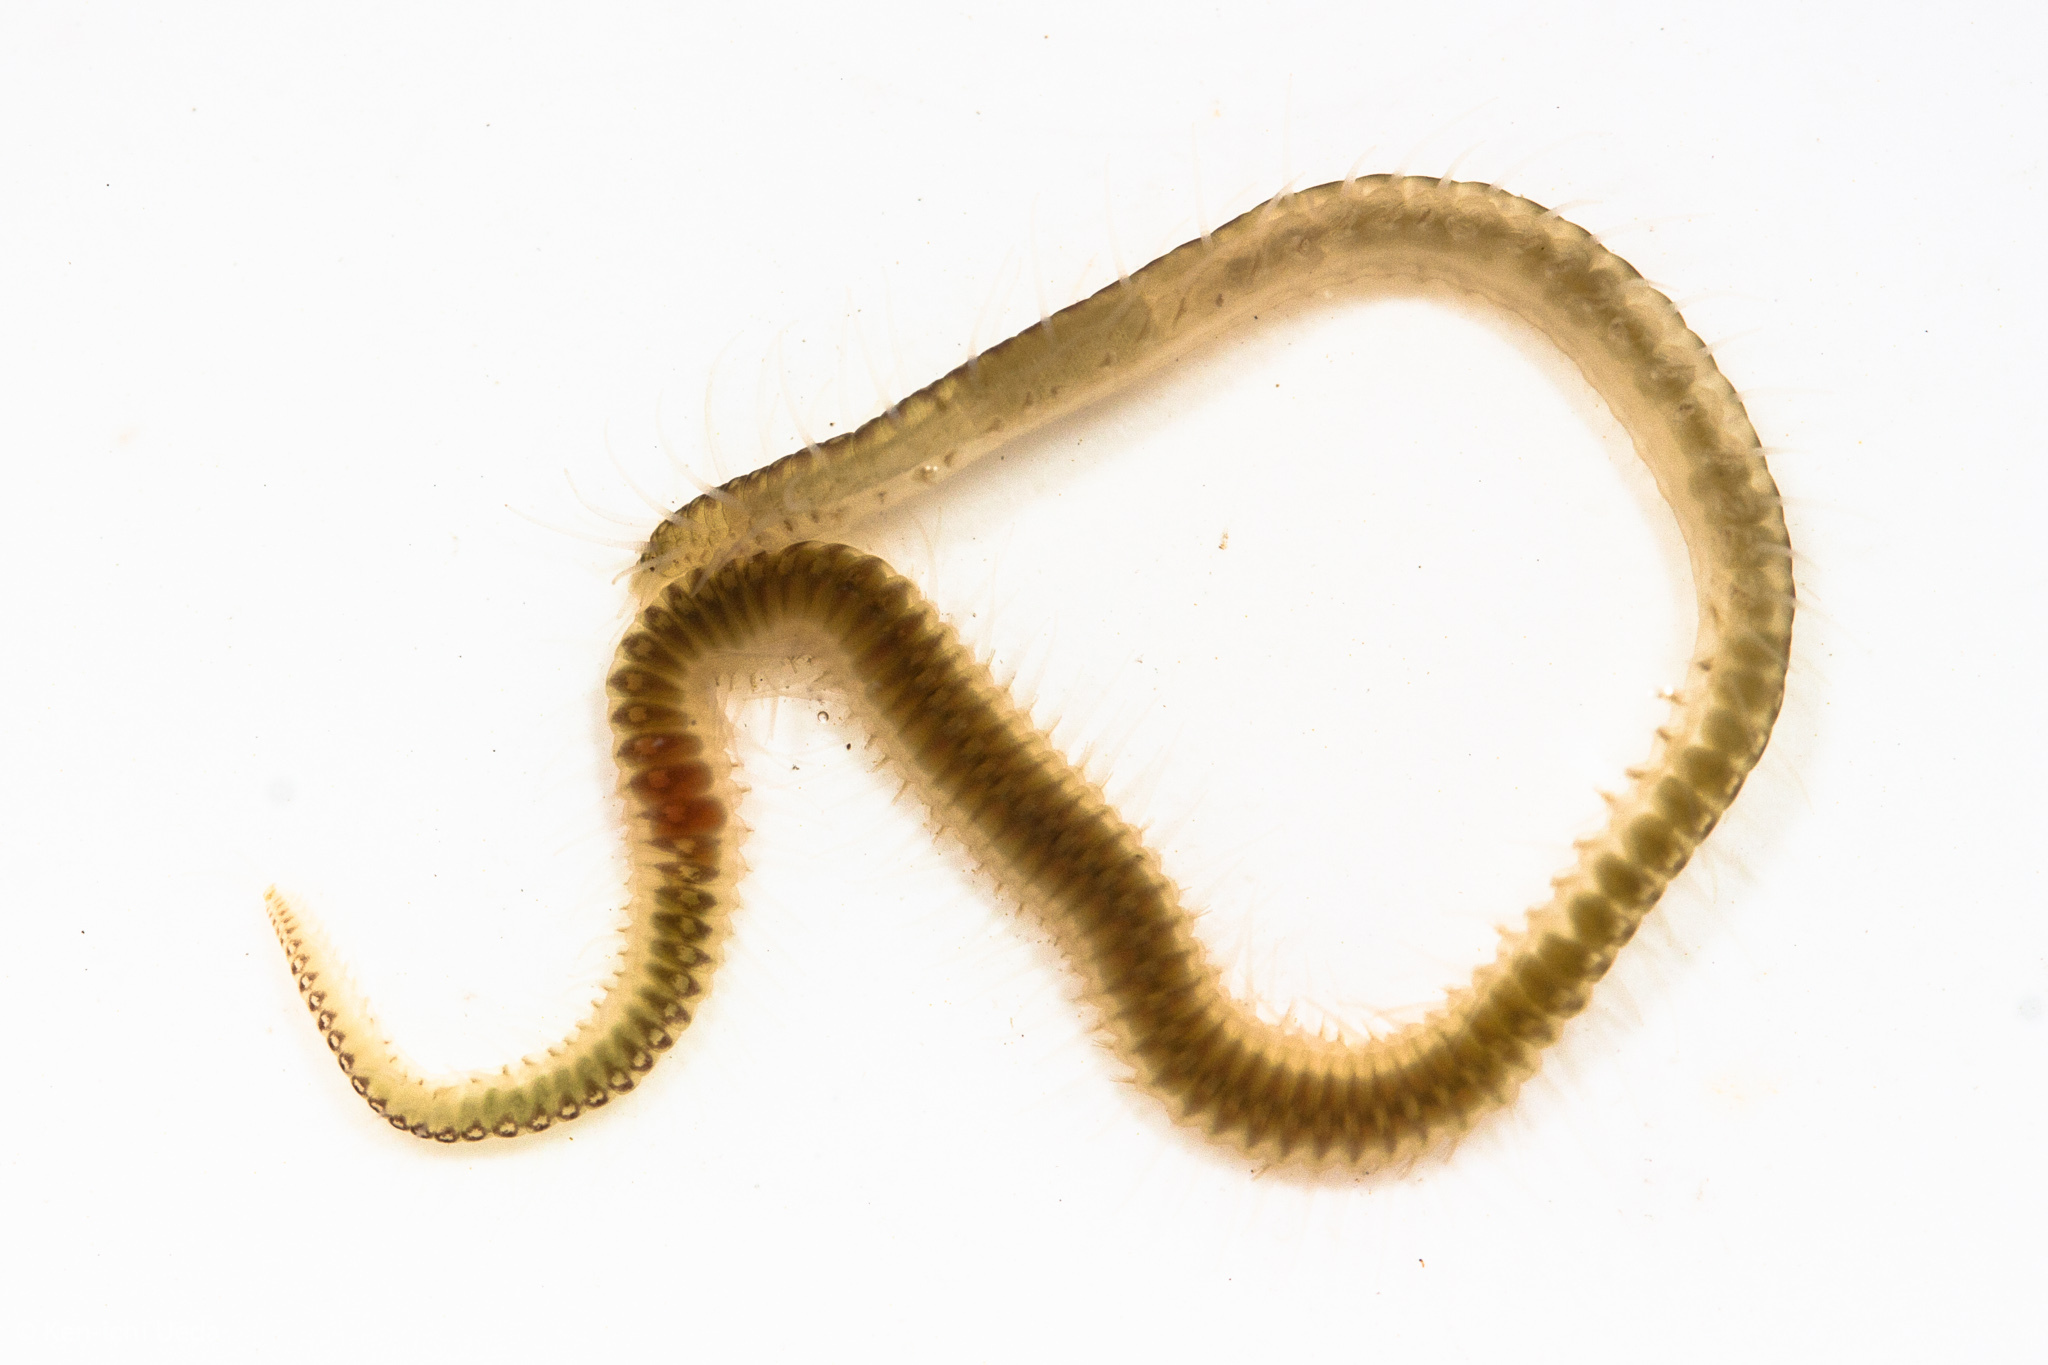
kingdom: Animalia
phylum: Annelida
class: Polychaeta
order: Phyllodocida
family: Syllidae
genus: Syllis
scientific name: Syllis adamantea
